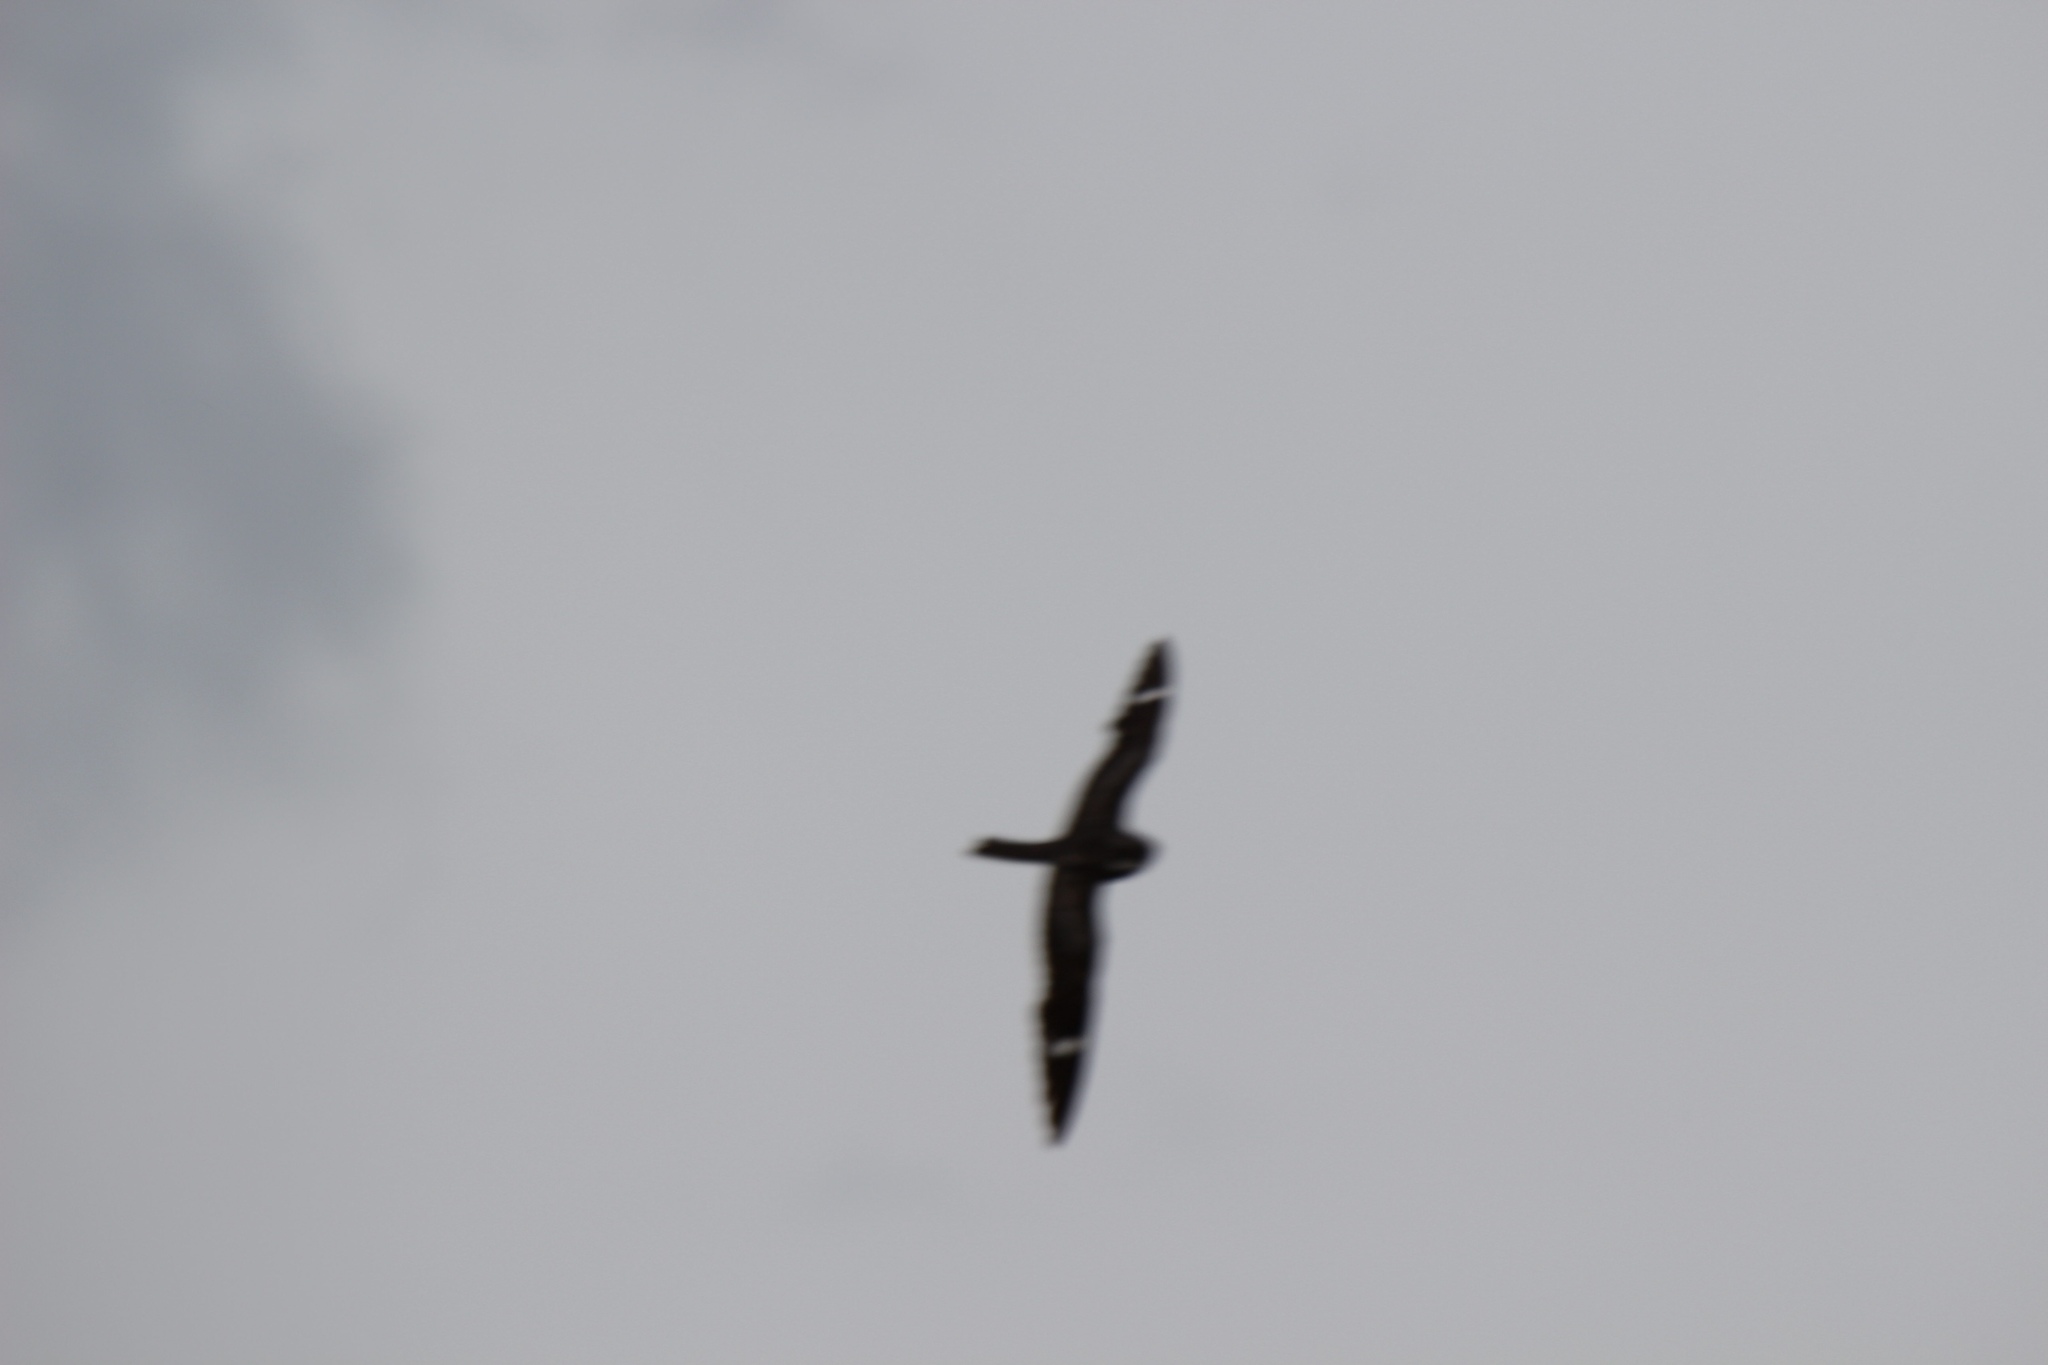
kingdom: Animalia
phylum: Chordata
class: Aves
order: Caprimulgiformes
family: Caprimulgidae
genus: Chordeiles
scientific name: Chordeiles minor
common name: Common nighthawk
